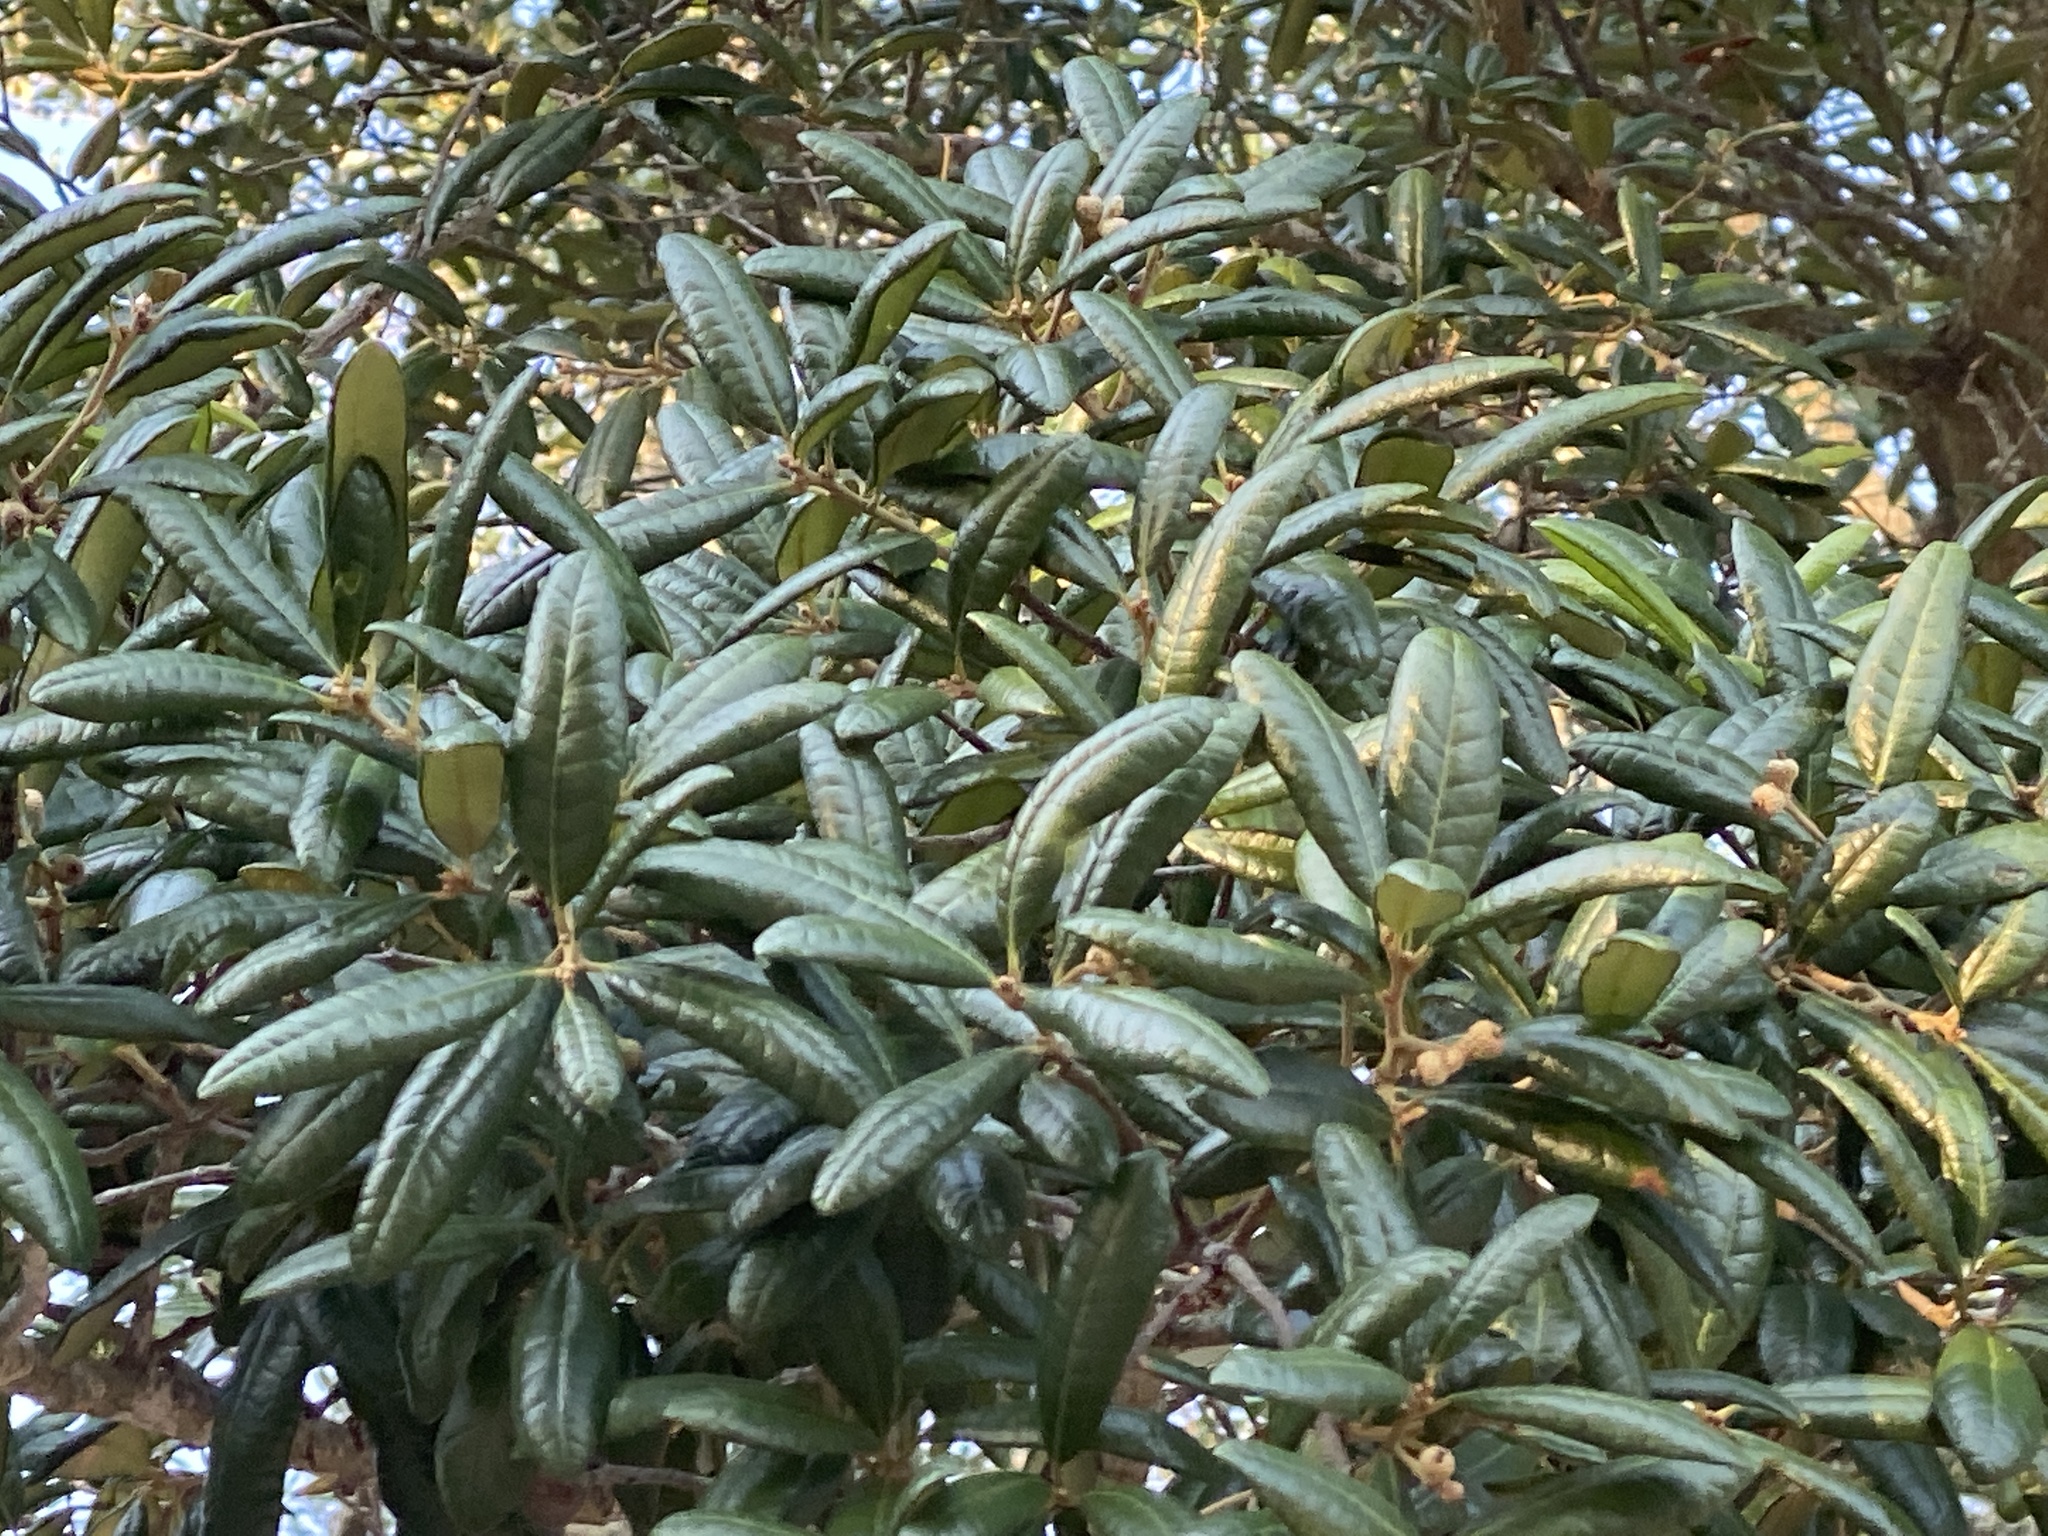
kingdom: Plantae
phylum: Tracheophyta
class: Magnoliopsida
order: Fagales
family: Fagaceae
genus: Quercus
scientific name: Quercus geminata
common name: Sand live oak
